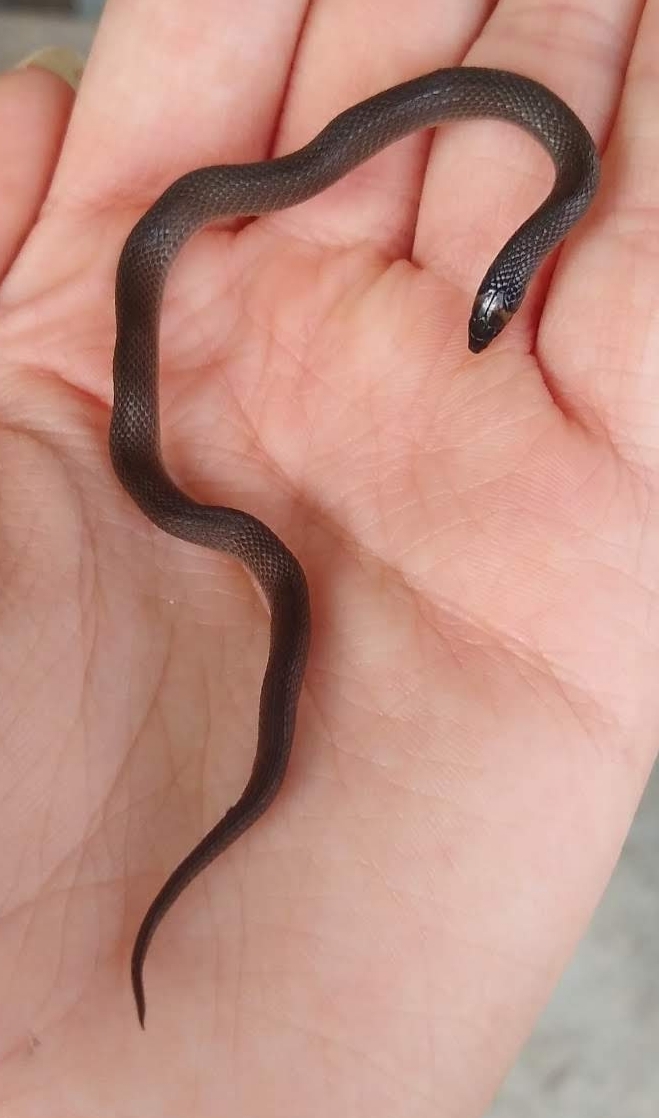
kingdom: Animalia
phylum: Chordata
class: Squamata
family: Colubridae
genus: Haldea
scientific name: Haldea striatula
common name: Rough earth snake
